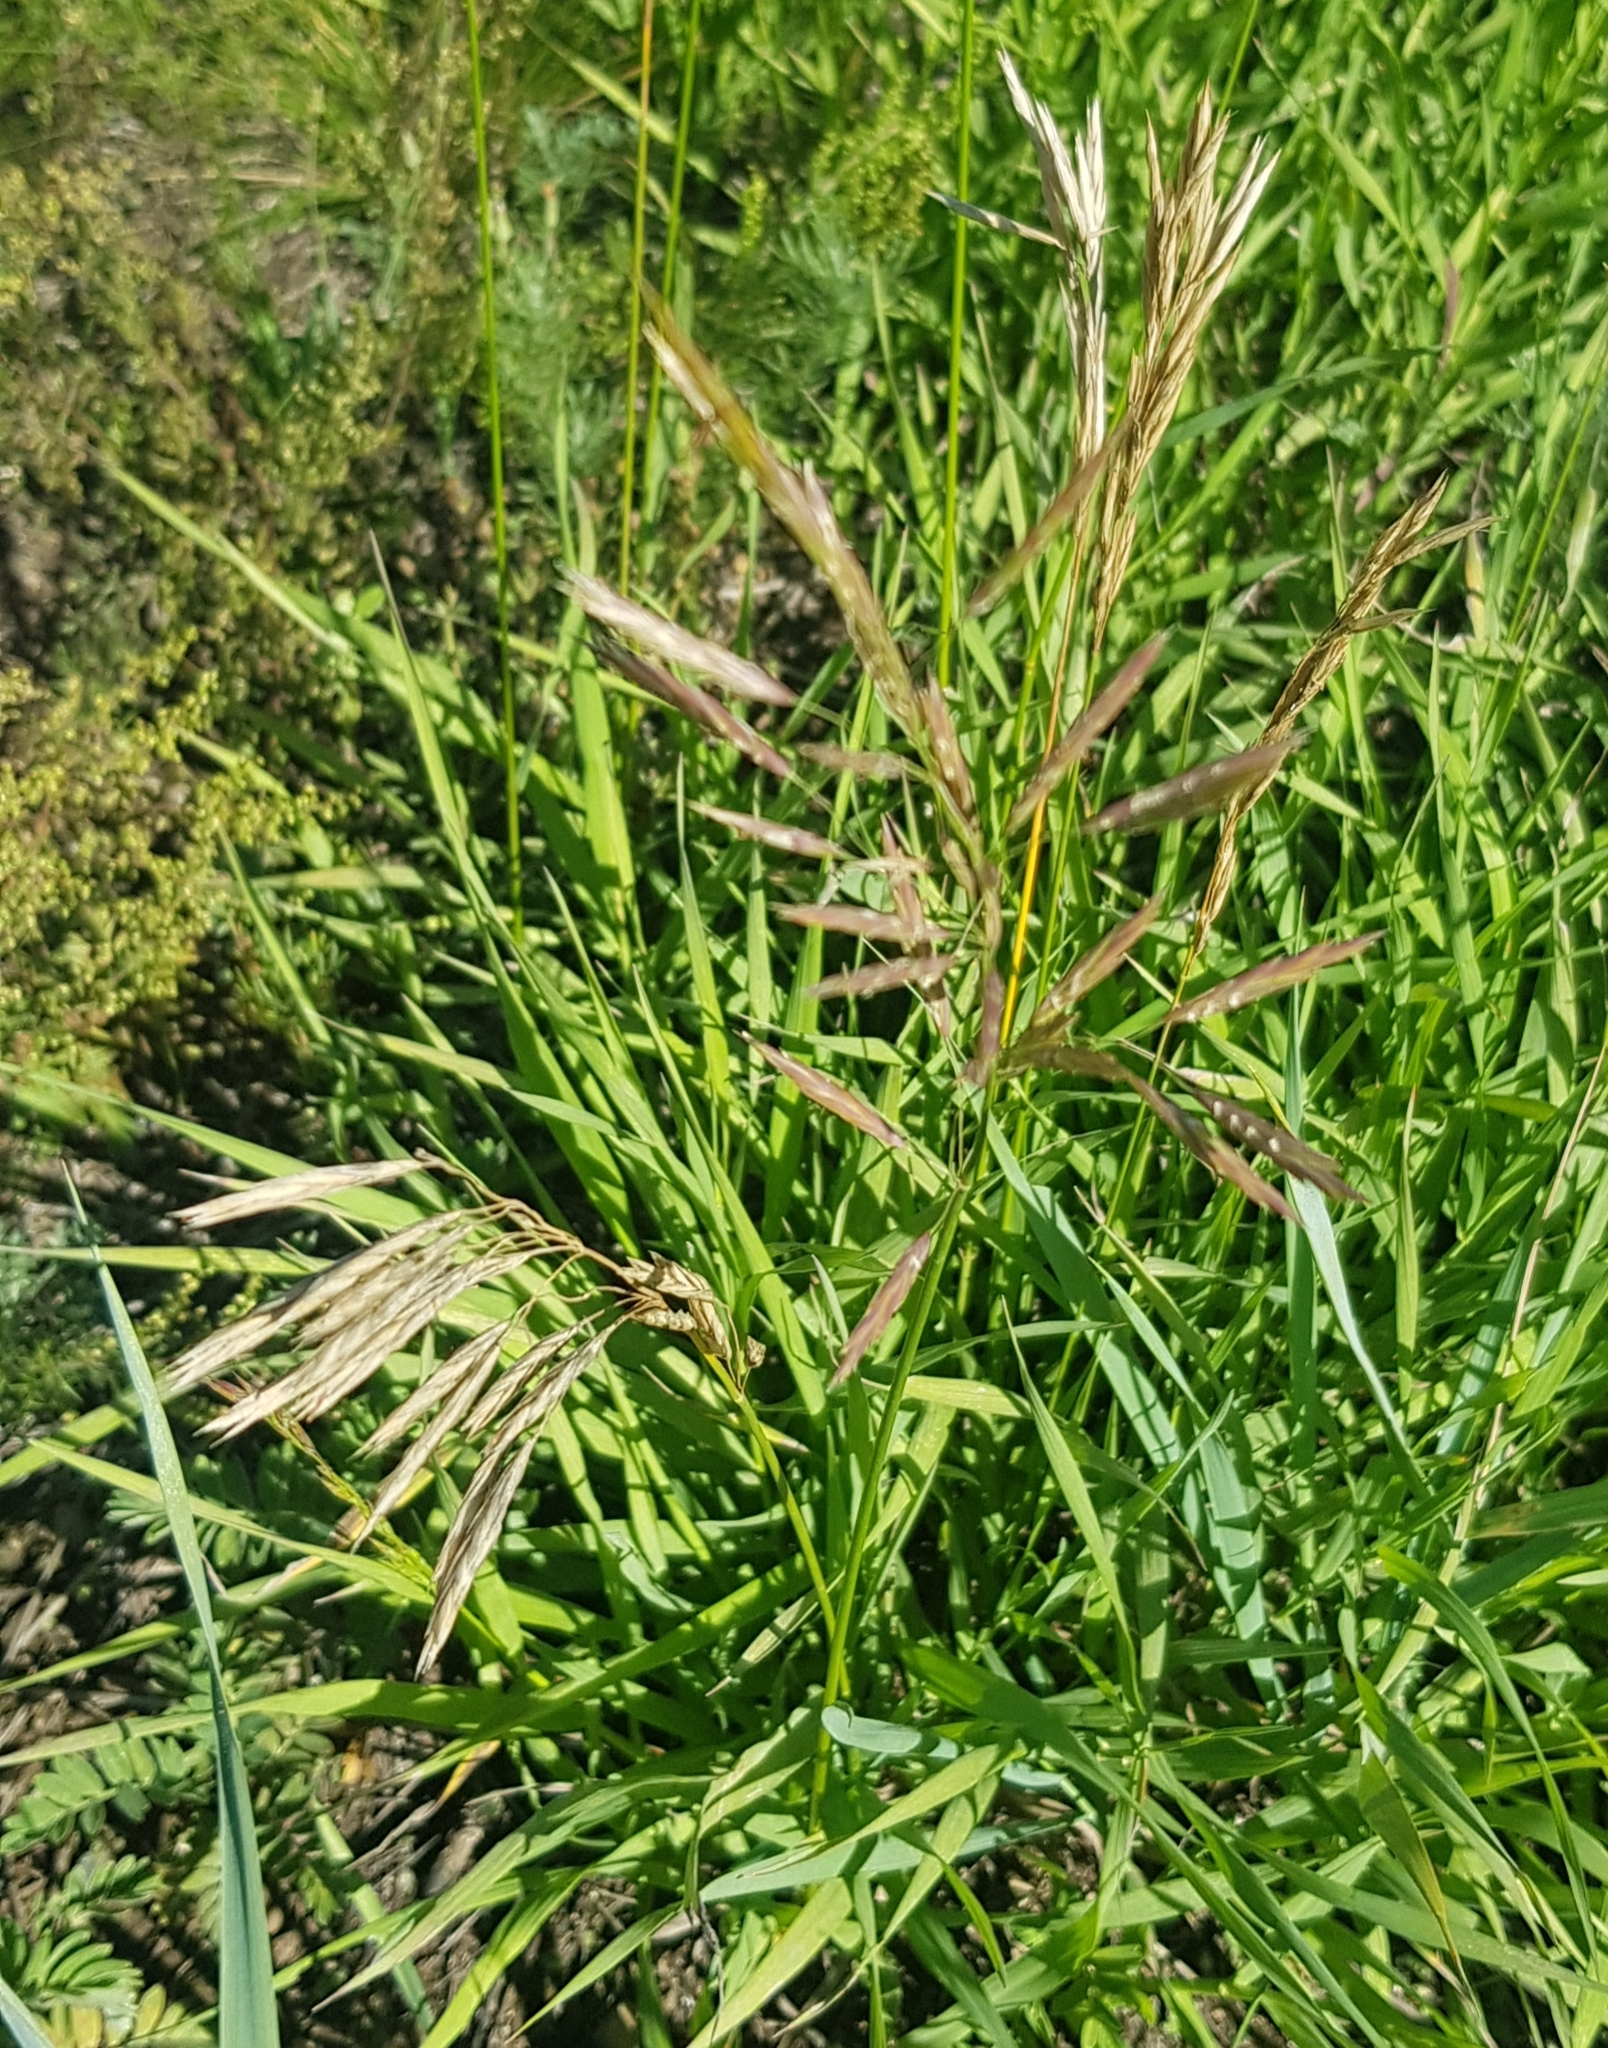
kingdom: Plantae
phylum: Tracheophyta
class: Liliopsida
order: Poales
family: Poaceae
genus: Bromus
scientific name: Bromus inermis
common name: Smooth brome
